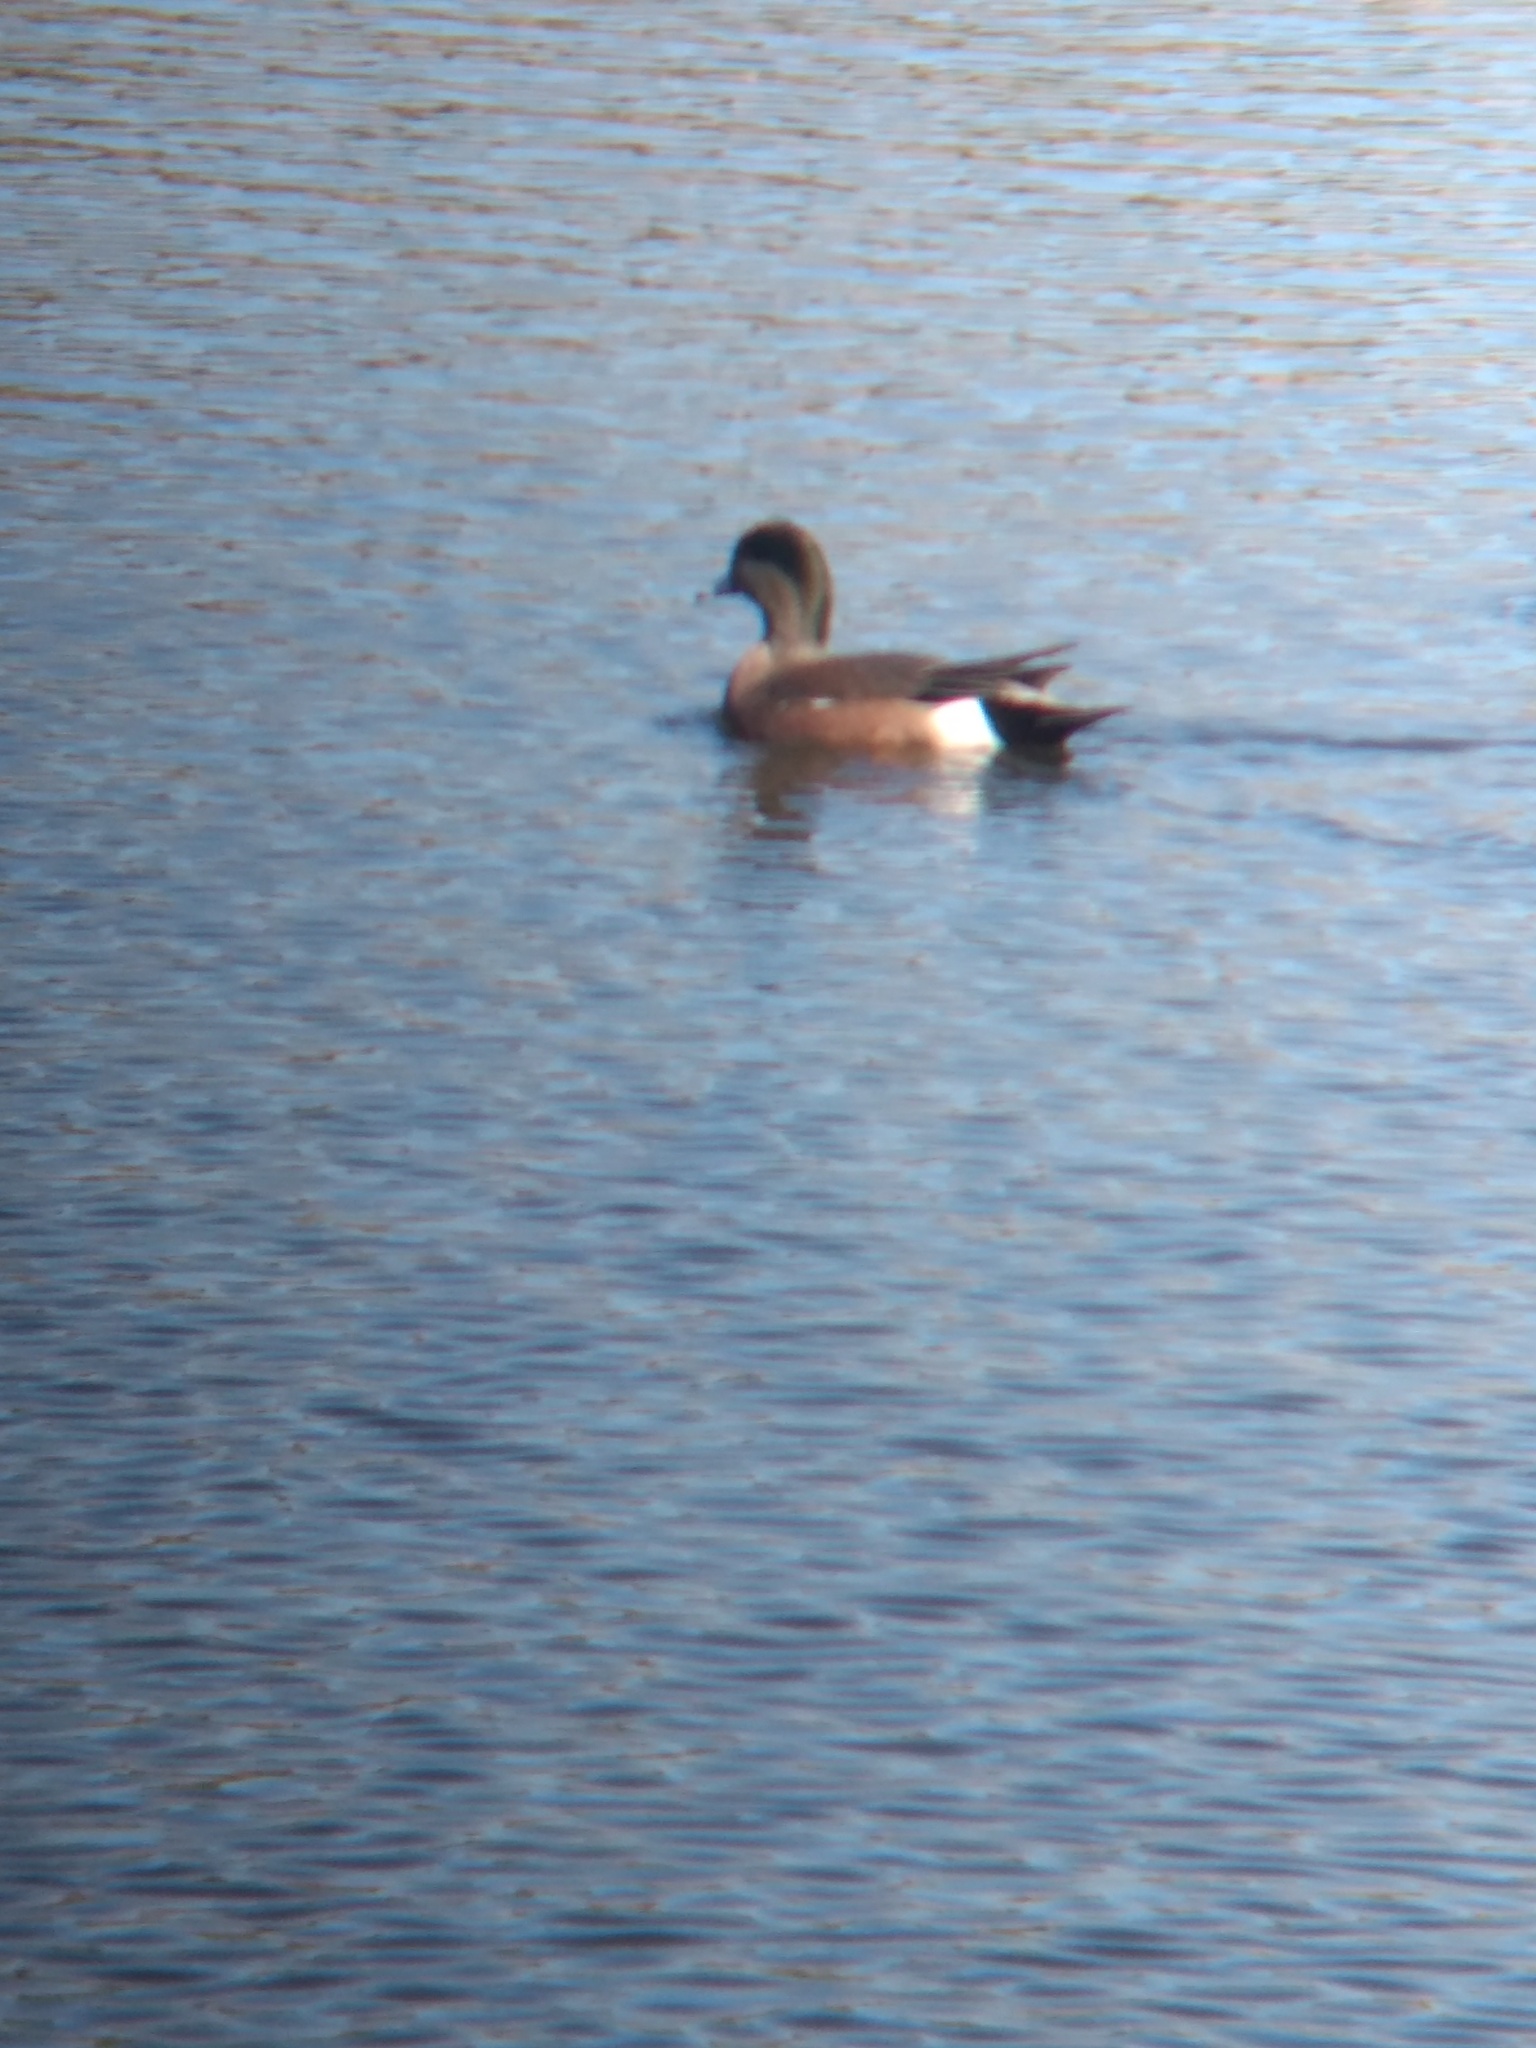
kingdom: Animalia
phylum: Chordata
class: Aves
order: Anseriformes
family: Anatidae
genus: Mareca
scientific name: Mareca americana
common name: American wigeon
